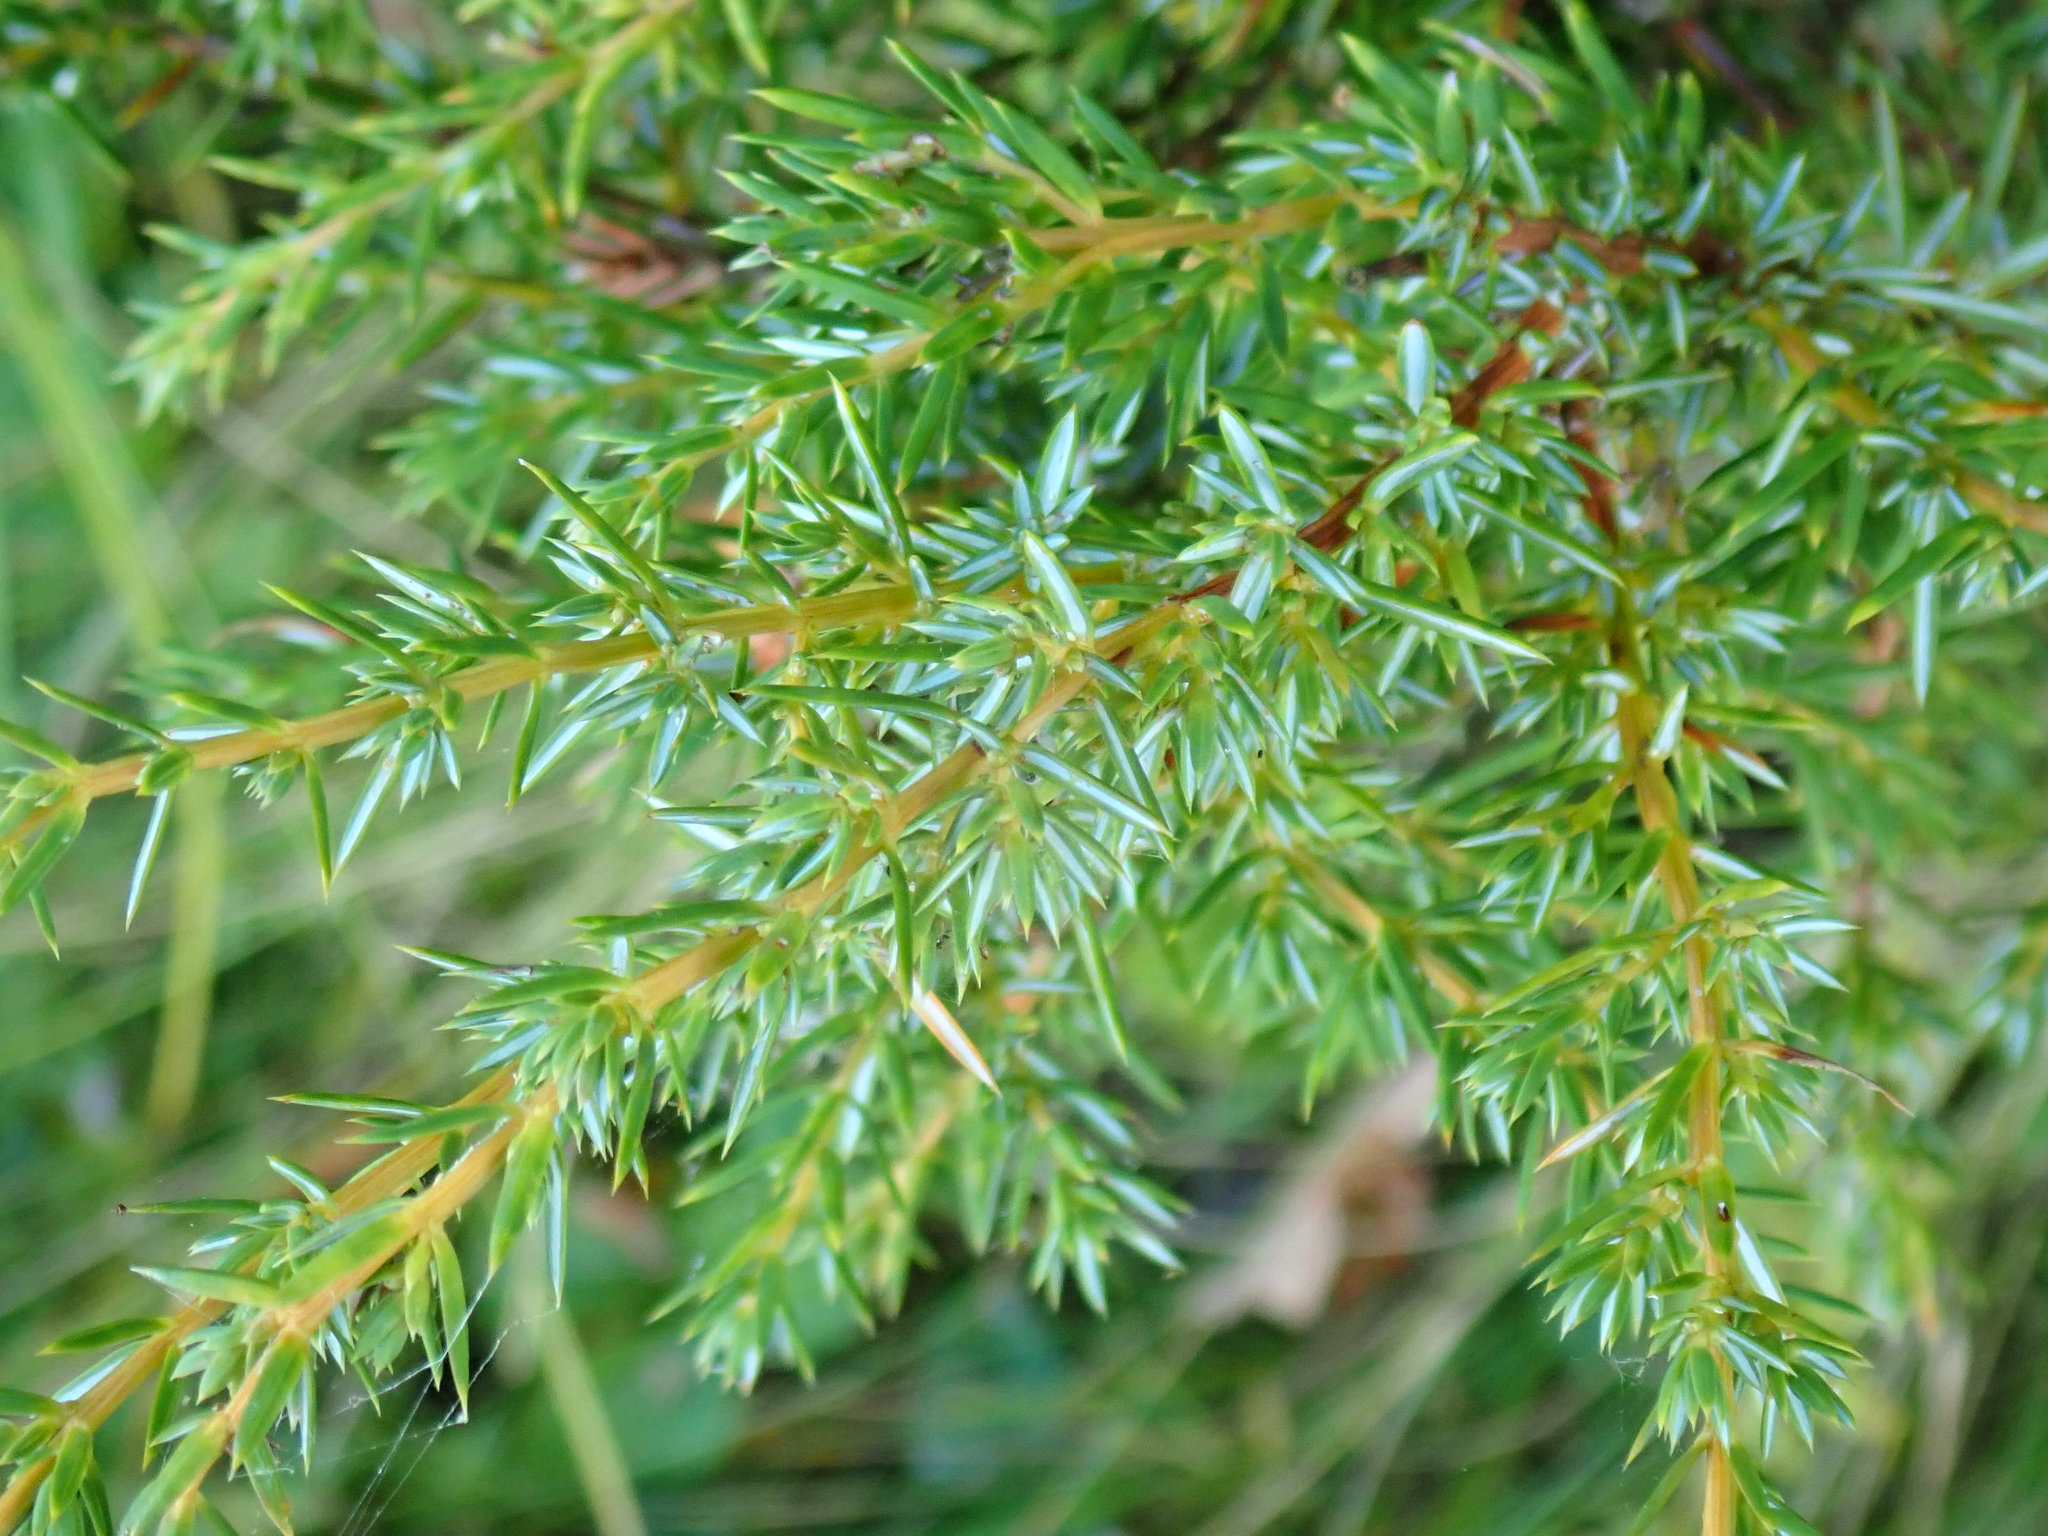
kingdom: Plantae
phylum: Tracheophyta
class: Pinopsida
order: Pinales
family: Cupressaceae
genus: Juniperus
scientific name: Juniperus communis
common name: Common juniper
